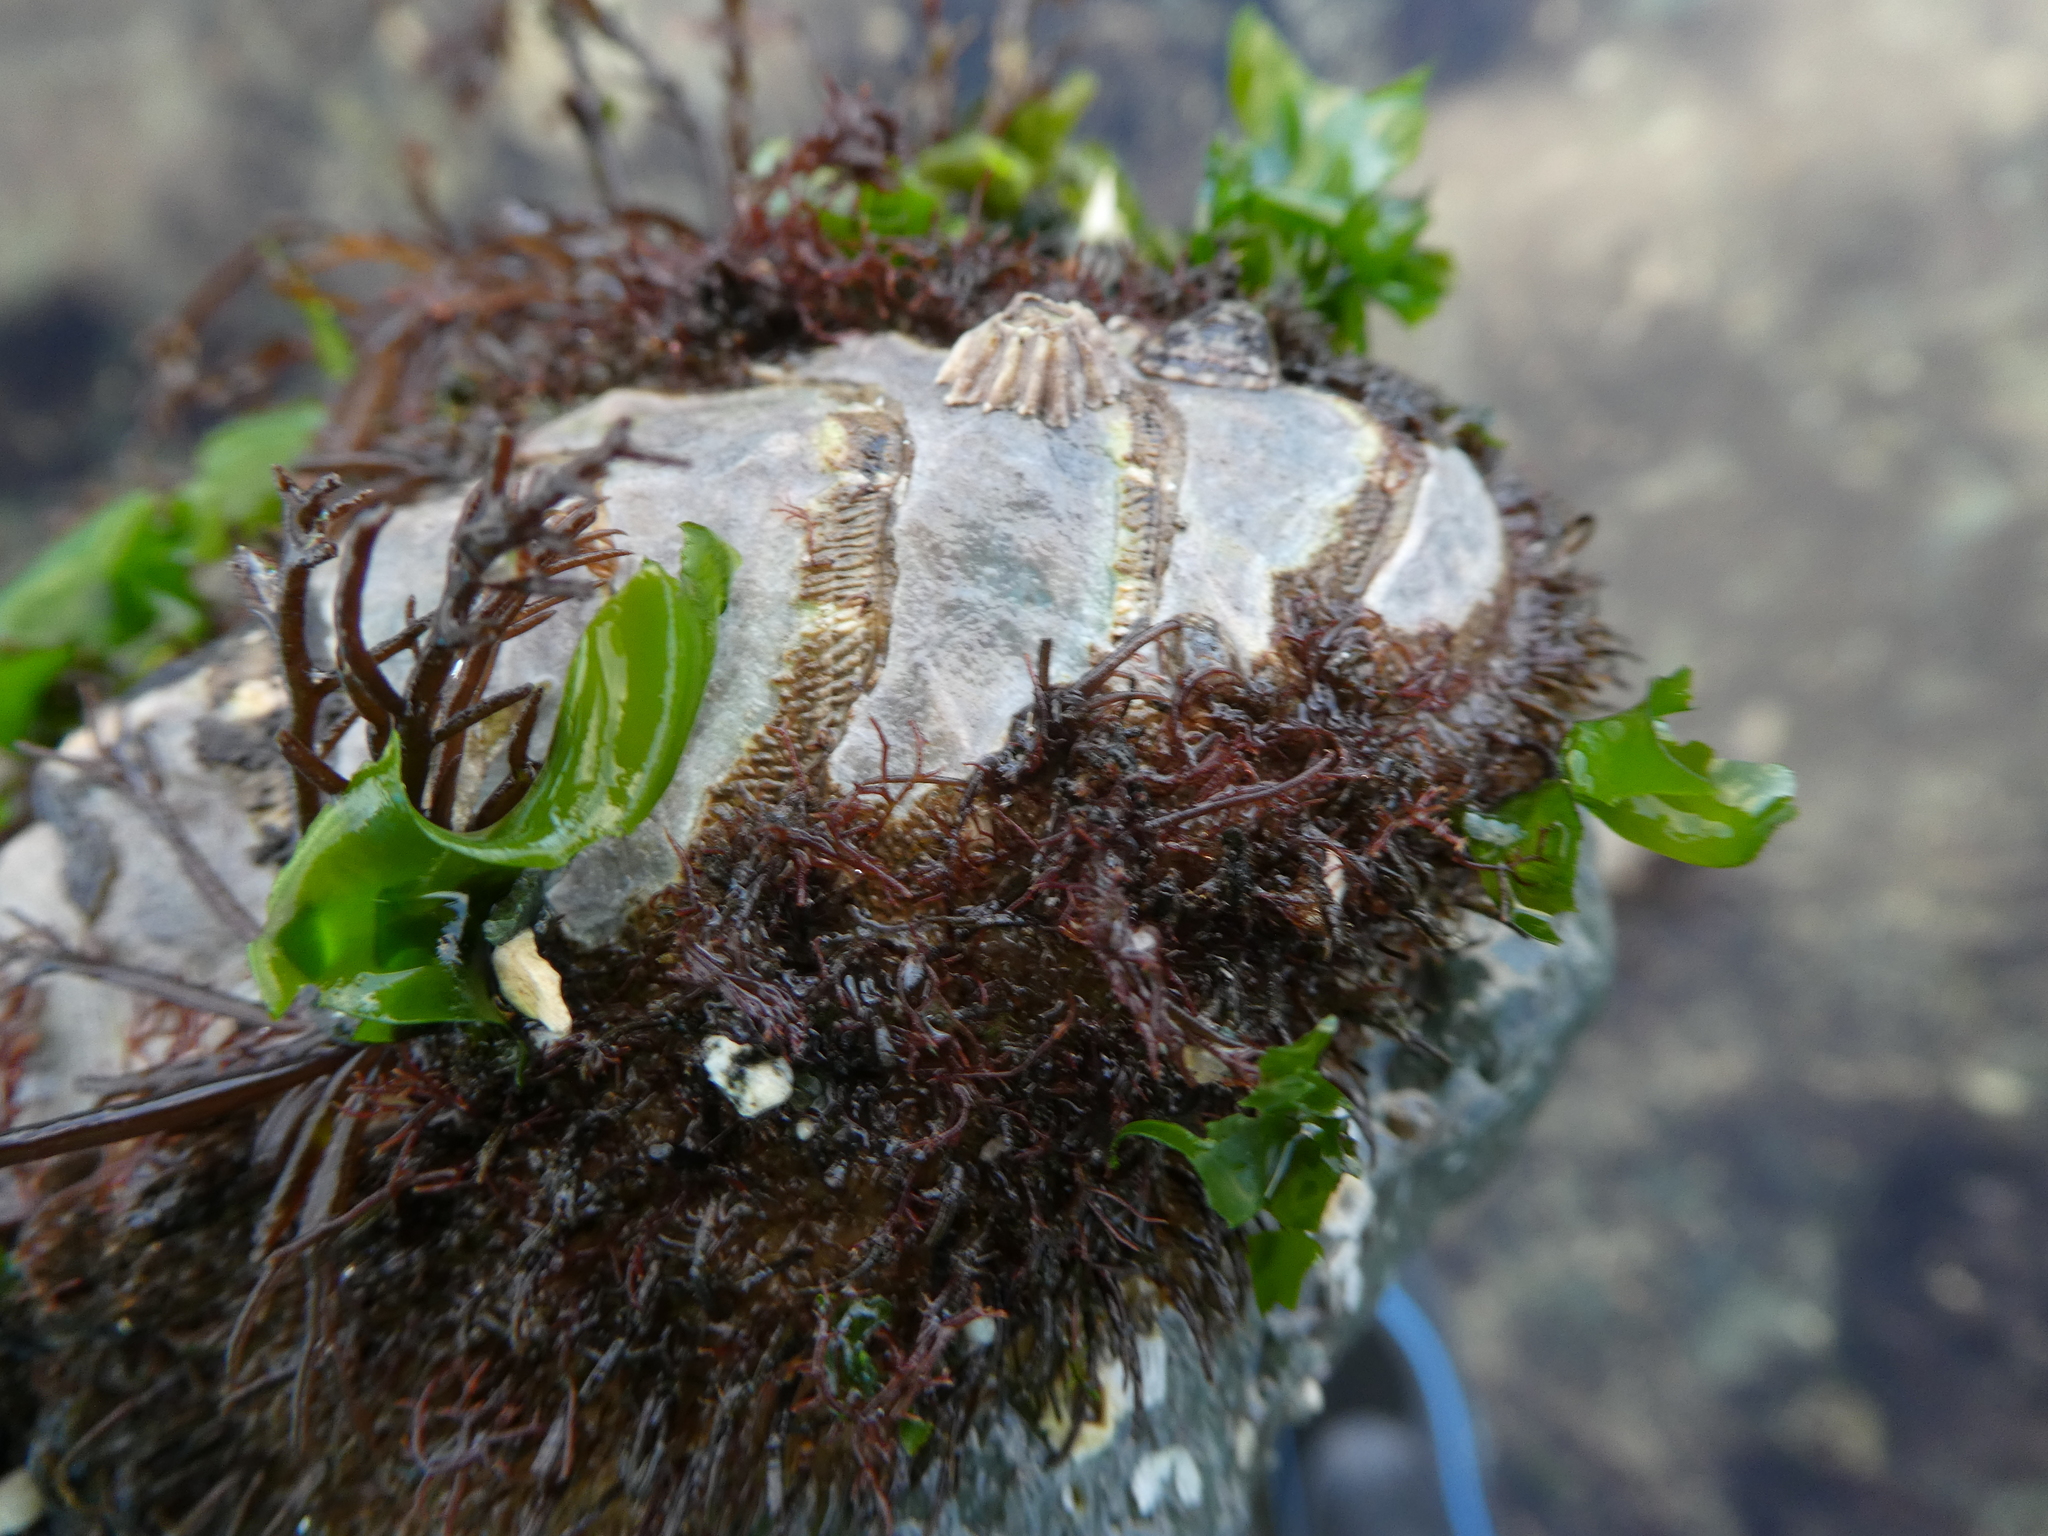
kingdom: Animalia
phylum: Mollusca
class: Polyplacophora
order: Chitonida
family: Mopaliidae
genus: Mopalia
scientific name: Mopalia muscosa
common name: Mossy chiton
